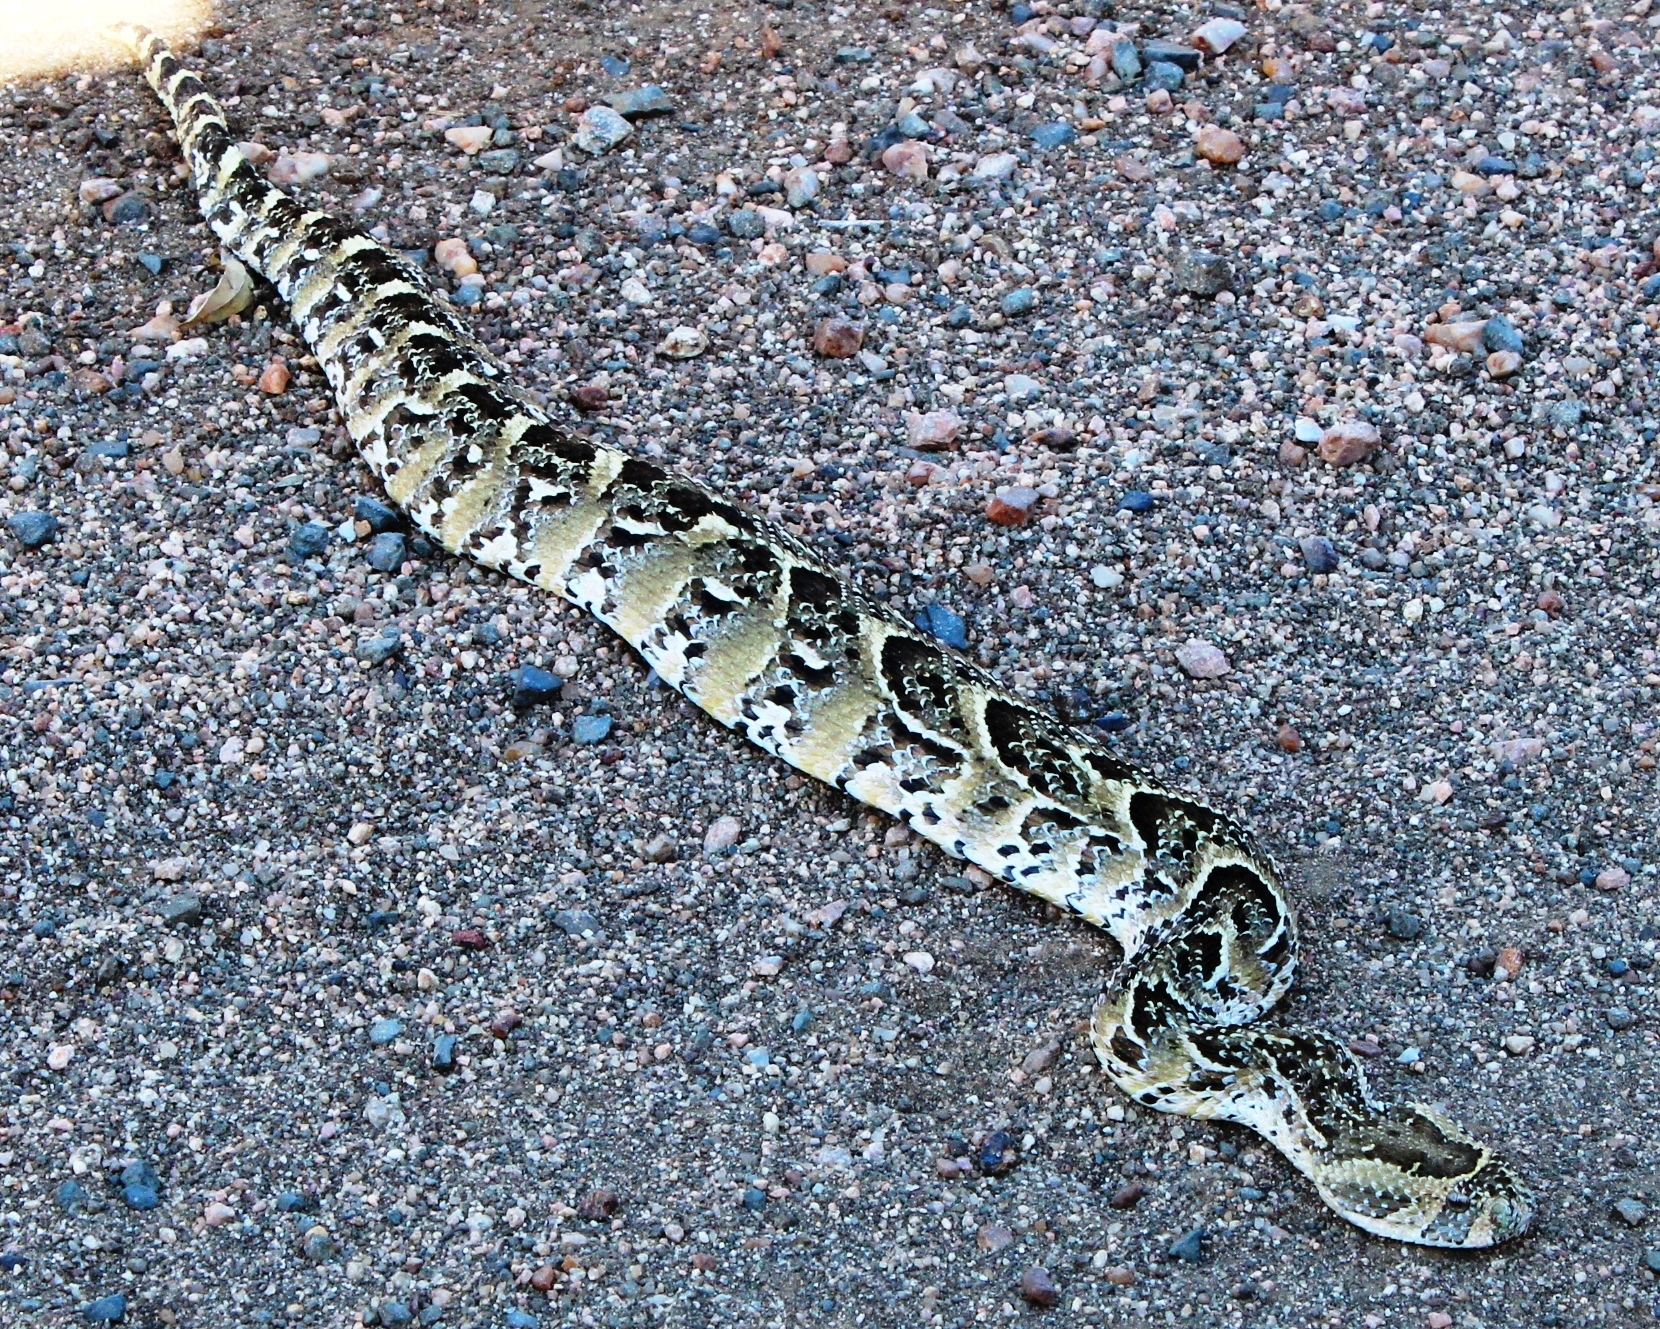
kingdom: Animalia
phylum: Chordata
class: Squamata
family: Viperidae
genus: Bitis
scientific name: Bitis arietans
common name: Puff adder
